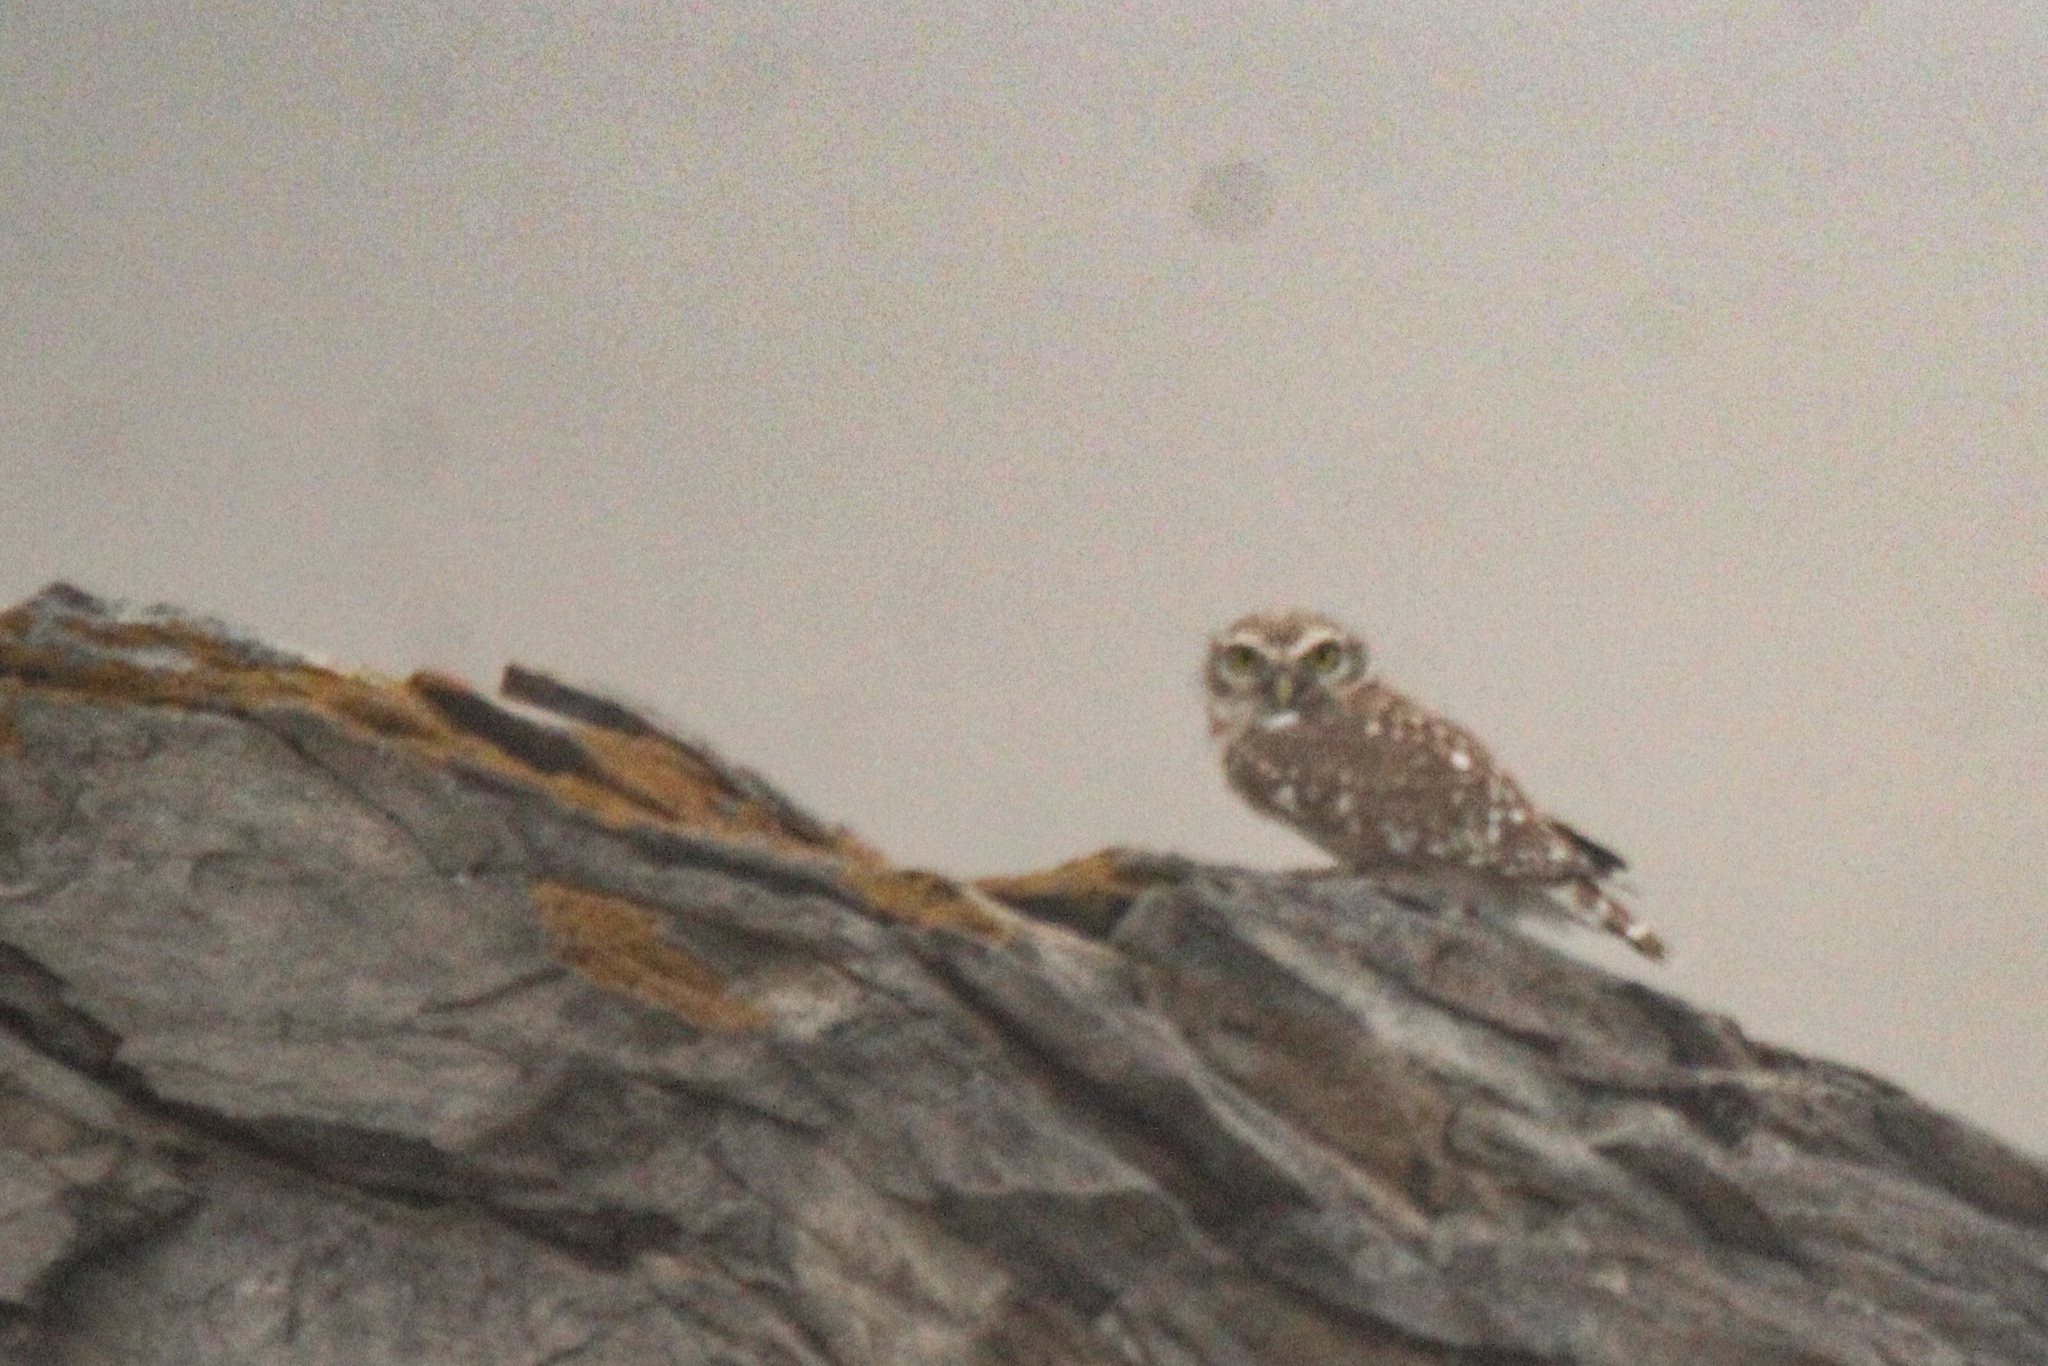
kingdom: Animalia
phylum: Chordata
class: Aves
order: Strigiformes
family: Strigidae
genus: Athene
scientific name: Athene noctua
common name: Little owl
